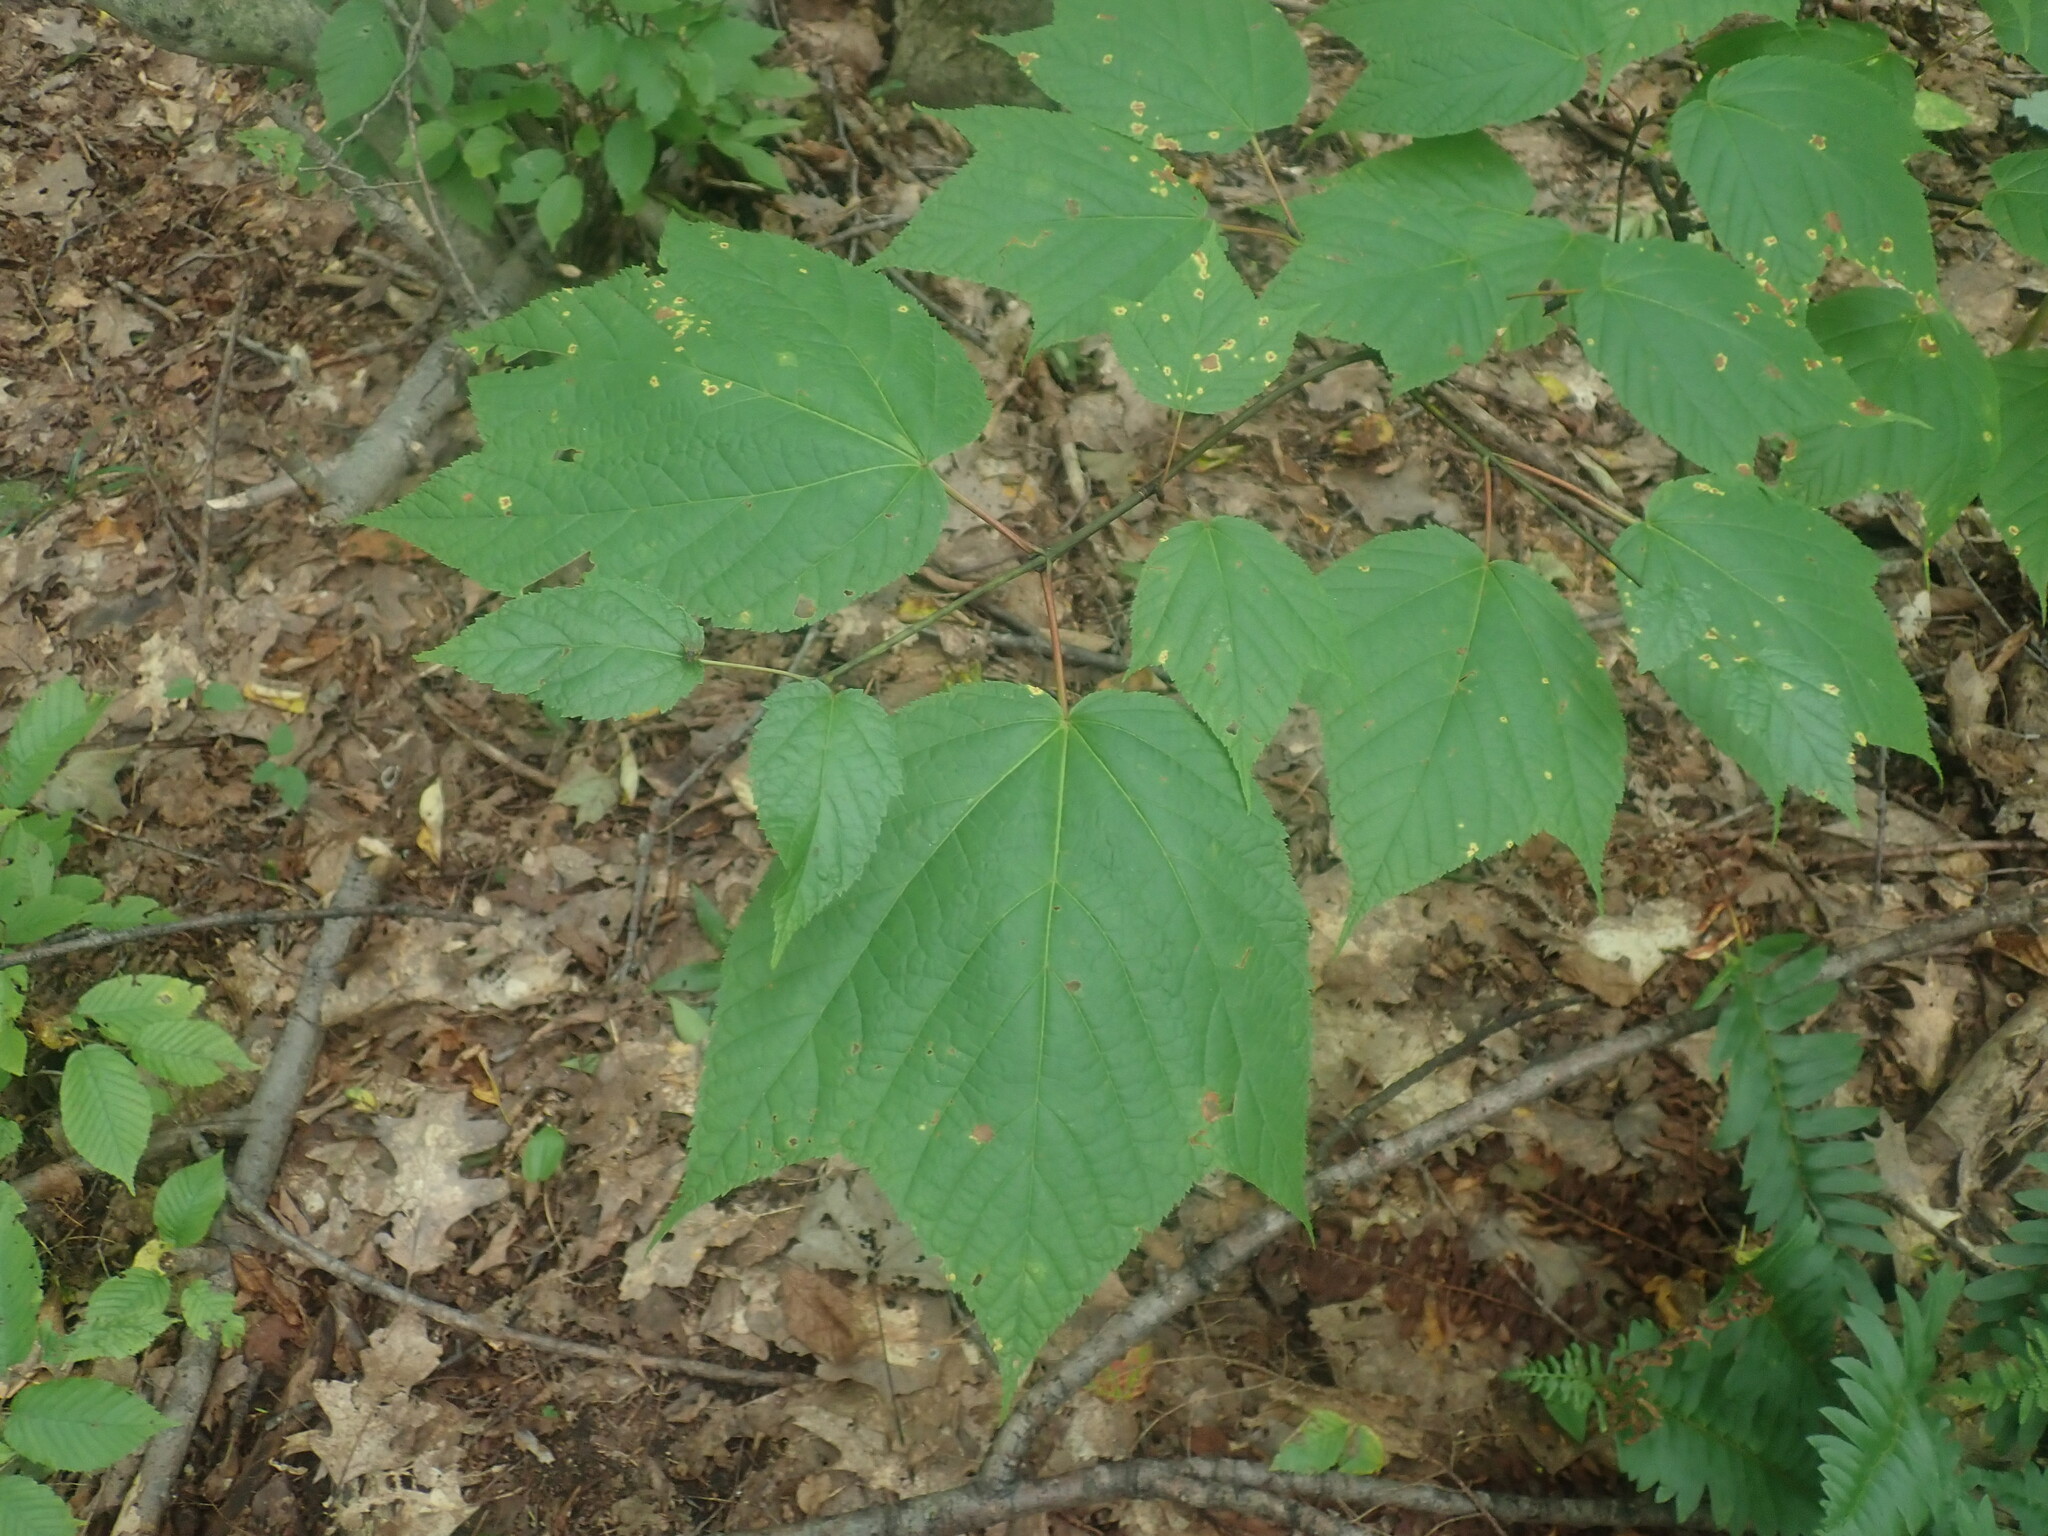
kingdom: Plantae
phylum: Tracheophyta
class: Magnoliopsida
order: Sapindales
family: Sapindaceae
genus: Acer
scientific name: Acer pensylvanicum
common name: Moosewood
